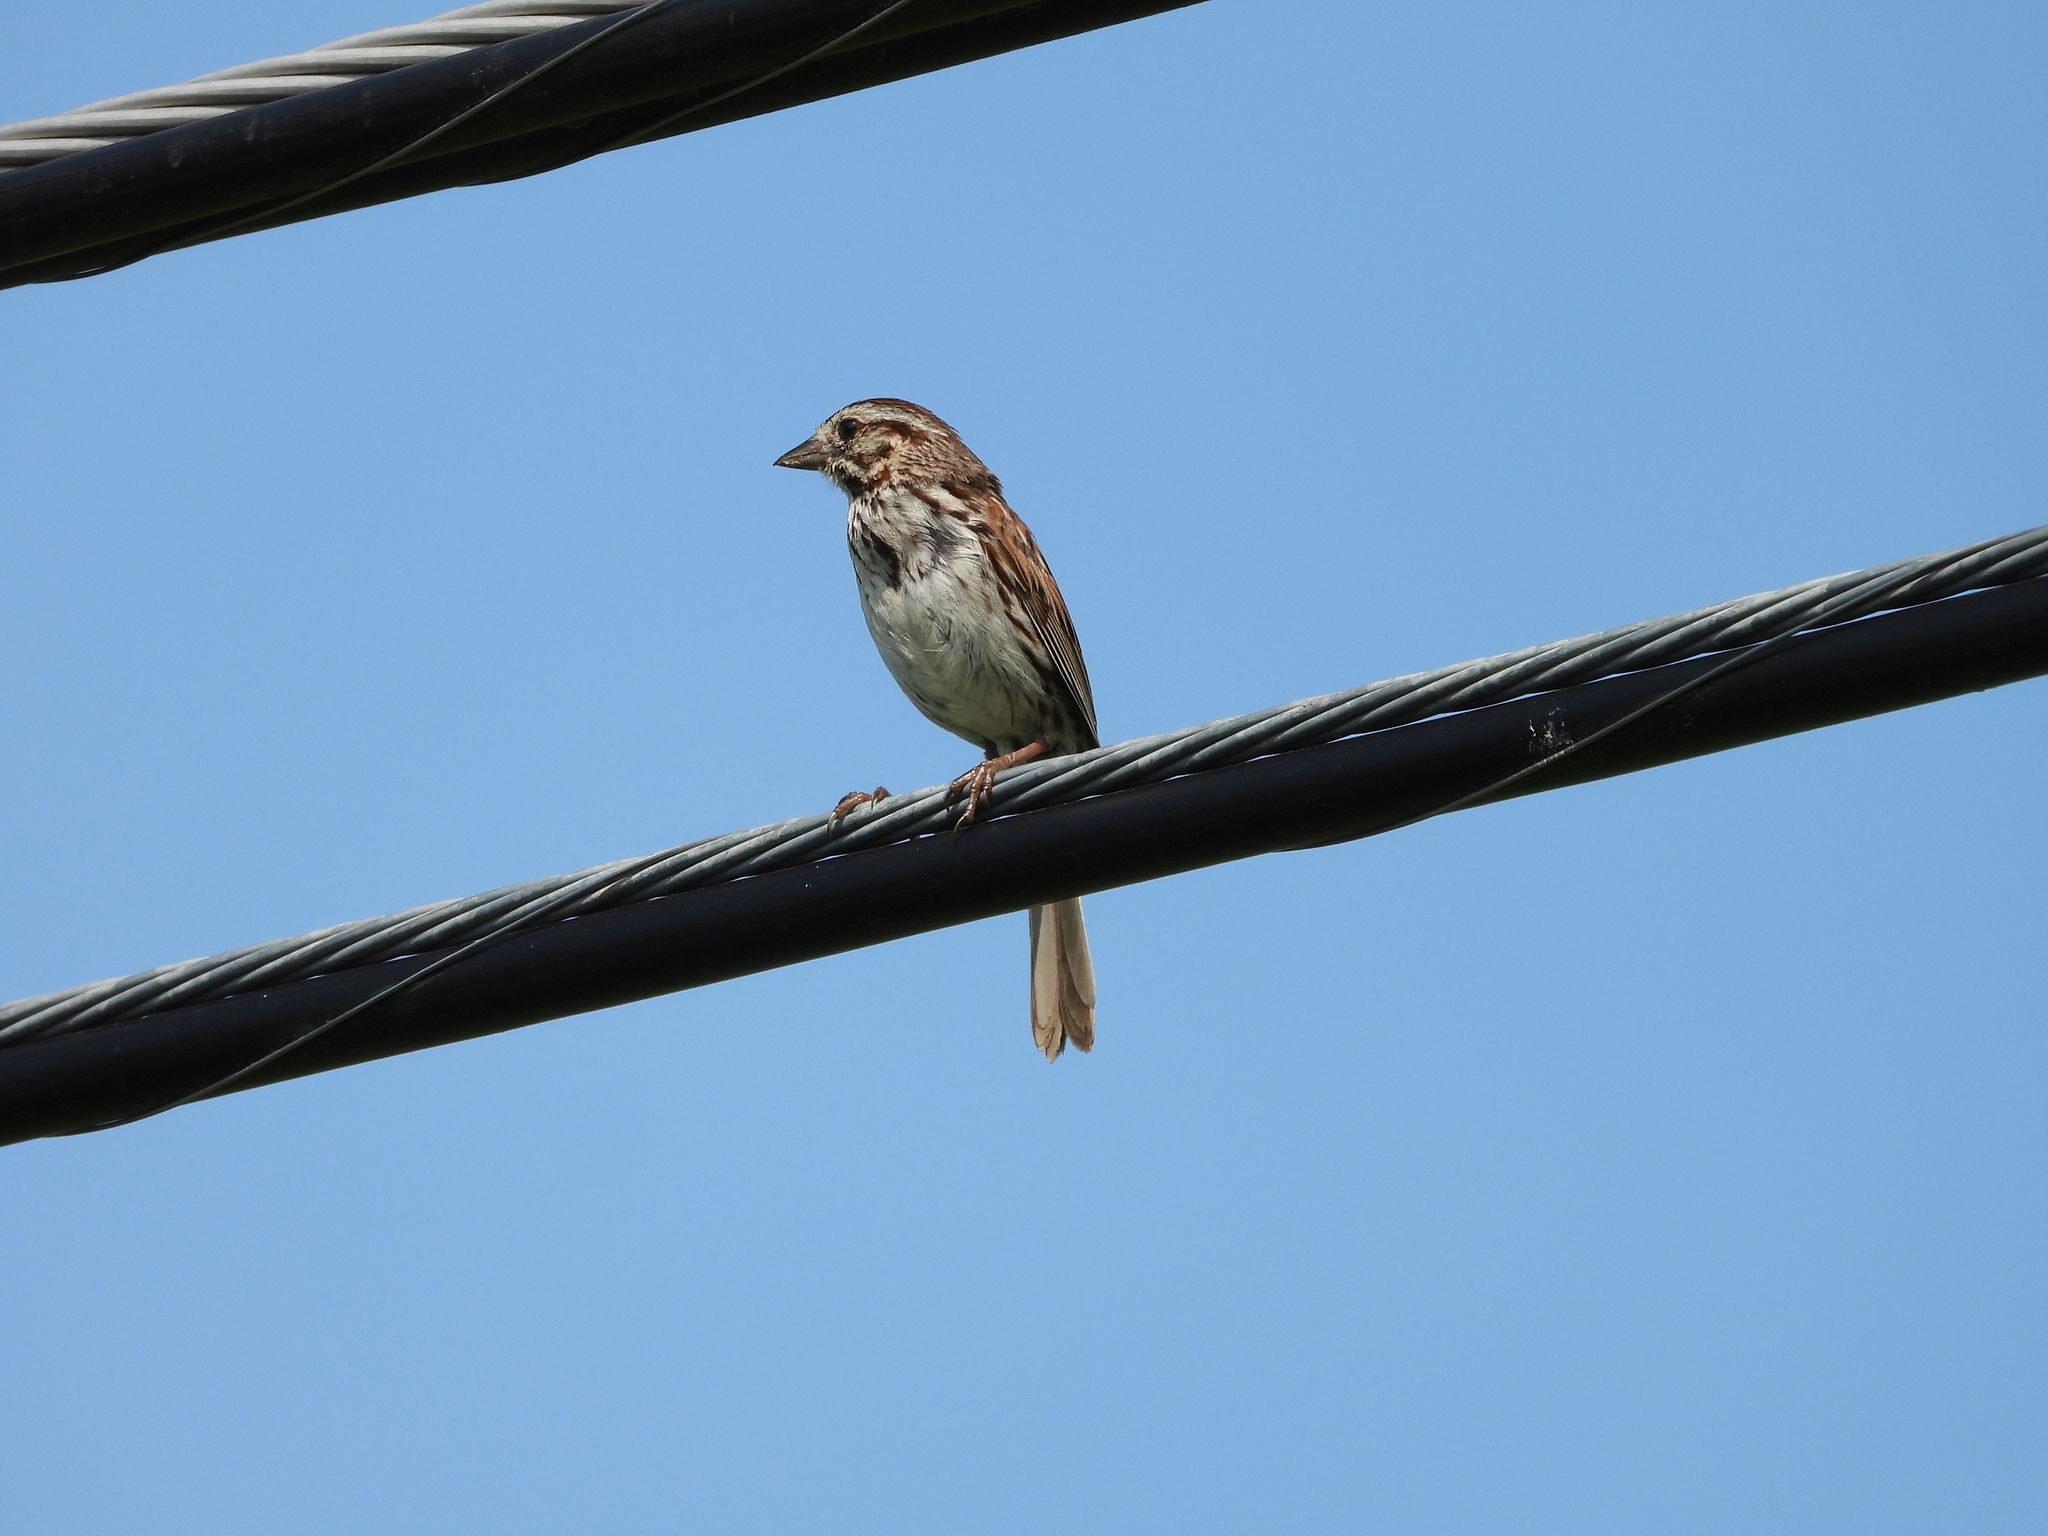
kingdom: Animalia
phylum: Chordata
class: Aves
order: Passeriformes
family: Passerellidae
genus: Melospiza
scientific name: Melospiza melodia
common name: Song sparrow
